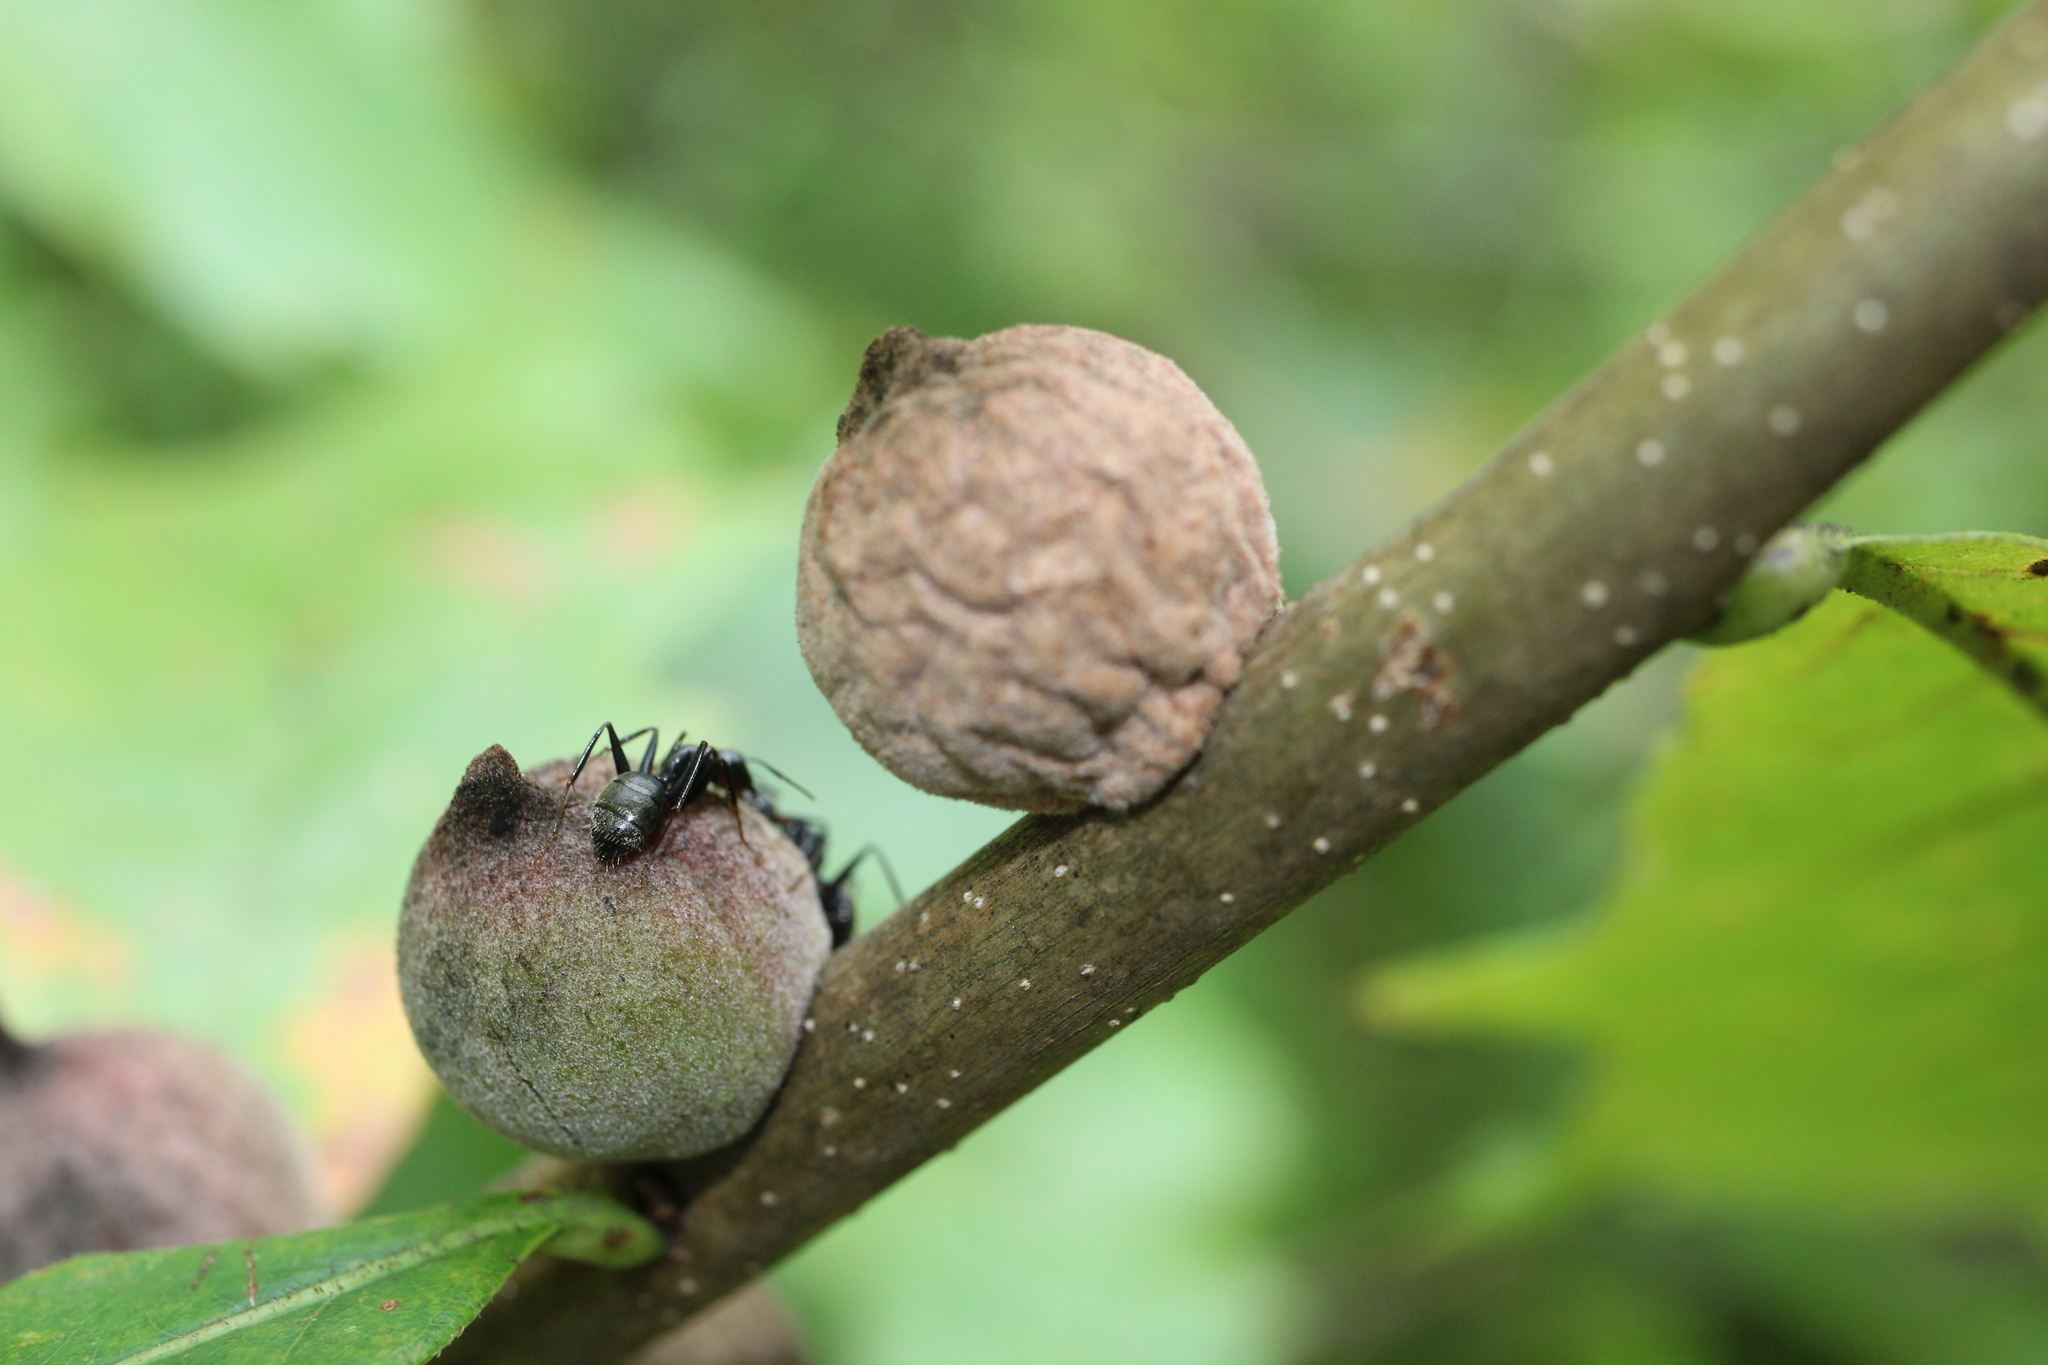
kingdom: Animalia
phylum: Arthropoda
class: Insecta
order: Hymenoptera
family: Formicidae
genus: Camponotus
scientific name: Camponotus pennsylvanicus
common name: Black carpenter ant
